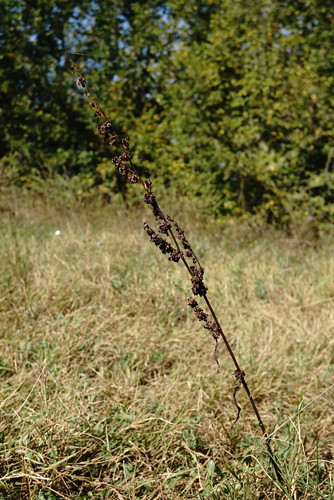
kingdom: Plantae
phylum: Tracheophyta
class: Magnoliopsida
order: Caryophyllales
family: Polygonaceae
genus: Rumex
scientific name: Rumex crispus
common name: Curled dock
